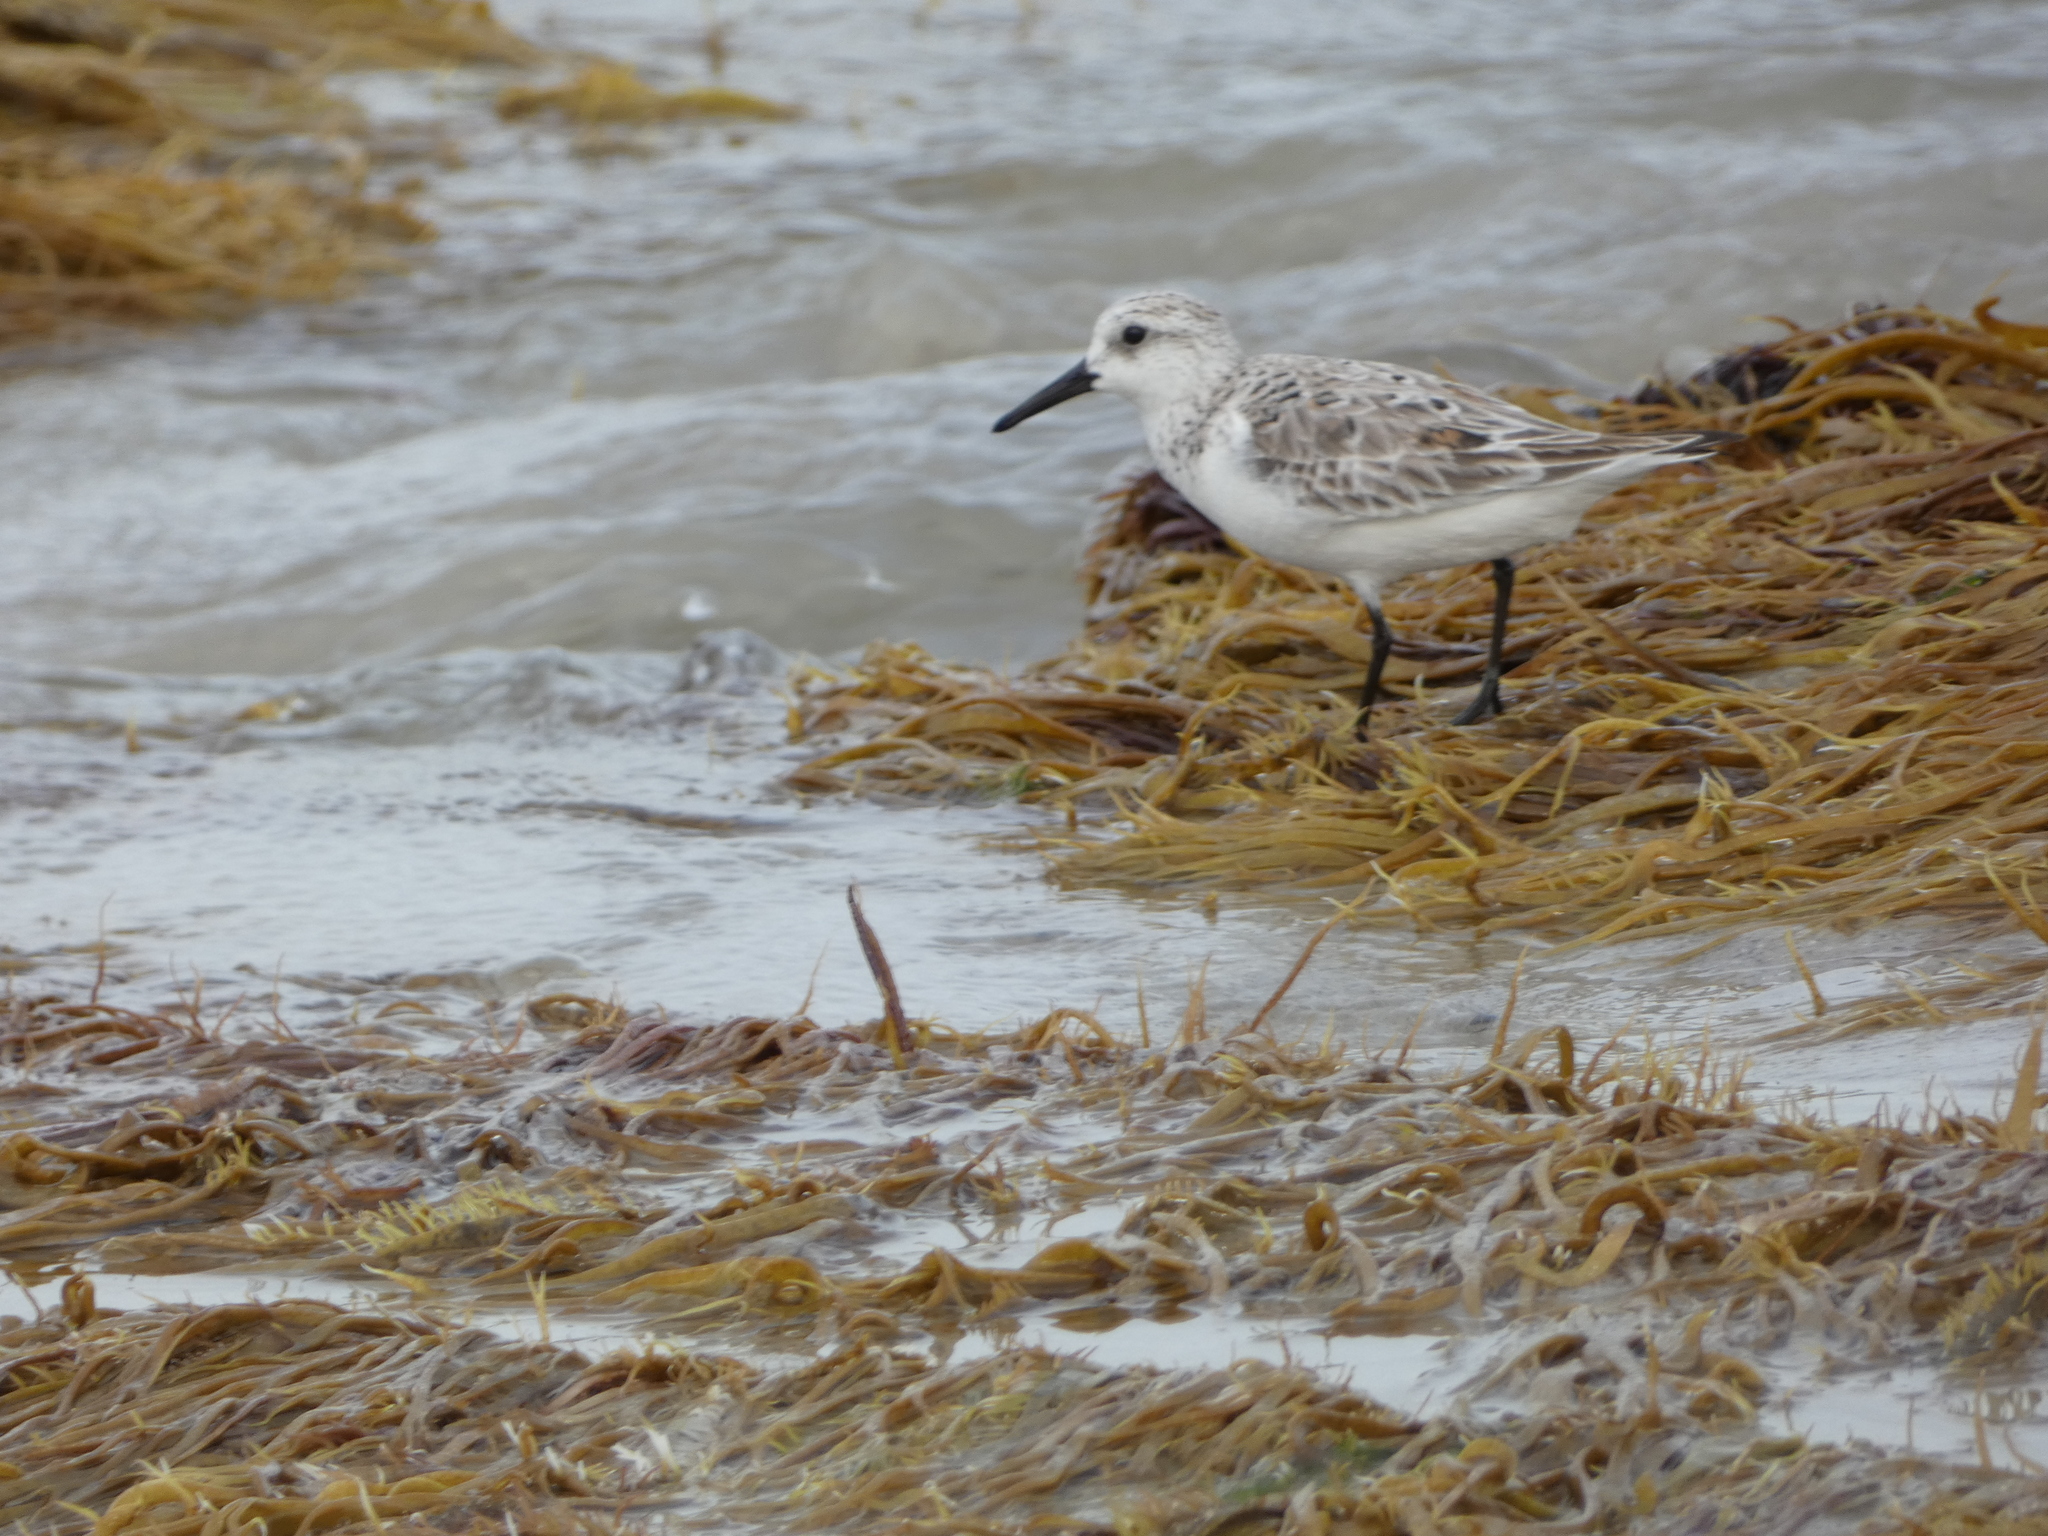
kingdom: Animalia
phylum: Chordata
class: Aves
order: Charadriiformes
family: Scolopacidae
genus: Calidris
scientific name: Calidris alba
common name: Sanderling
